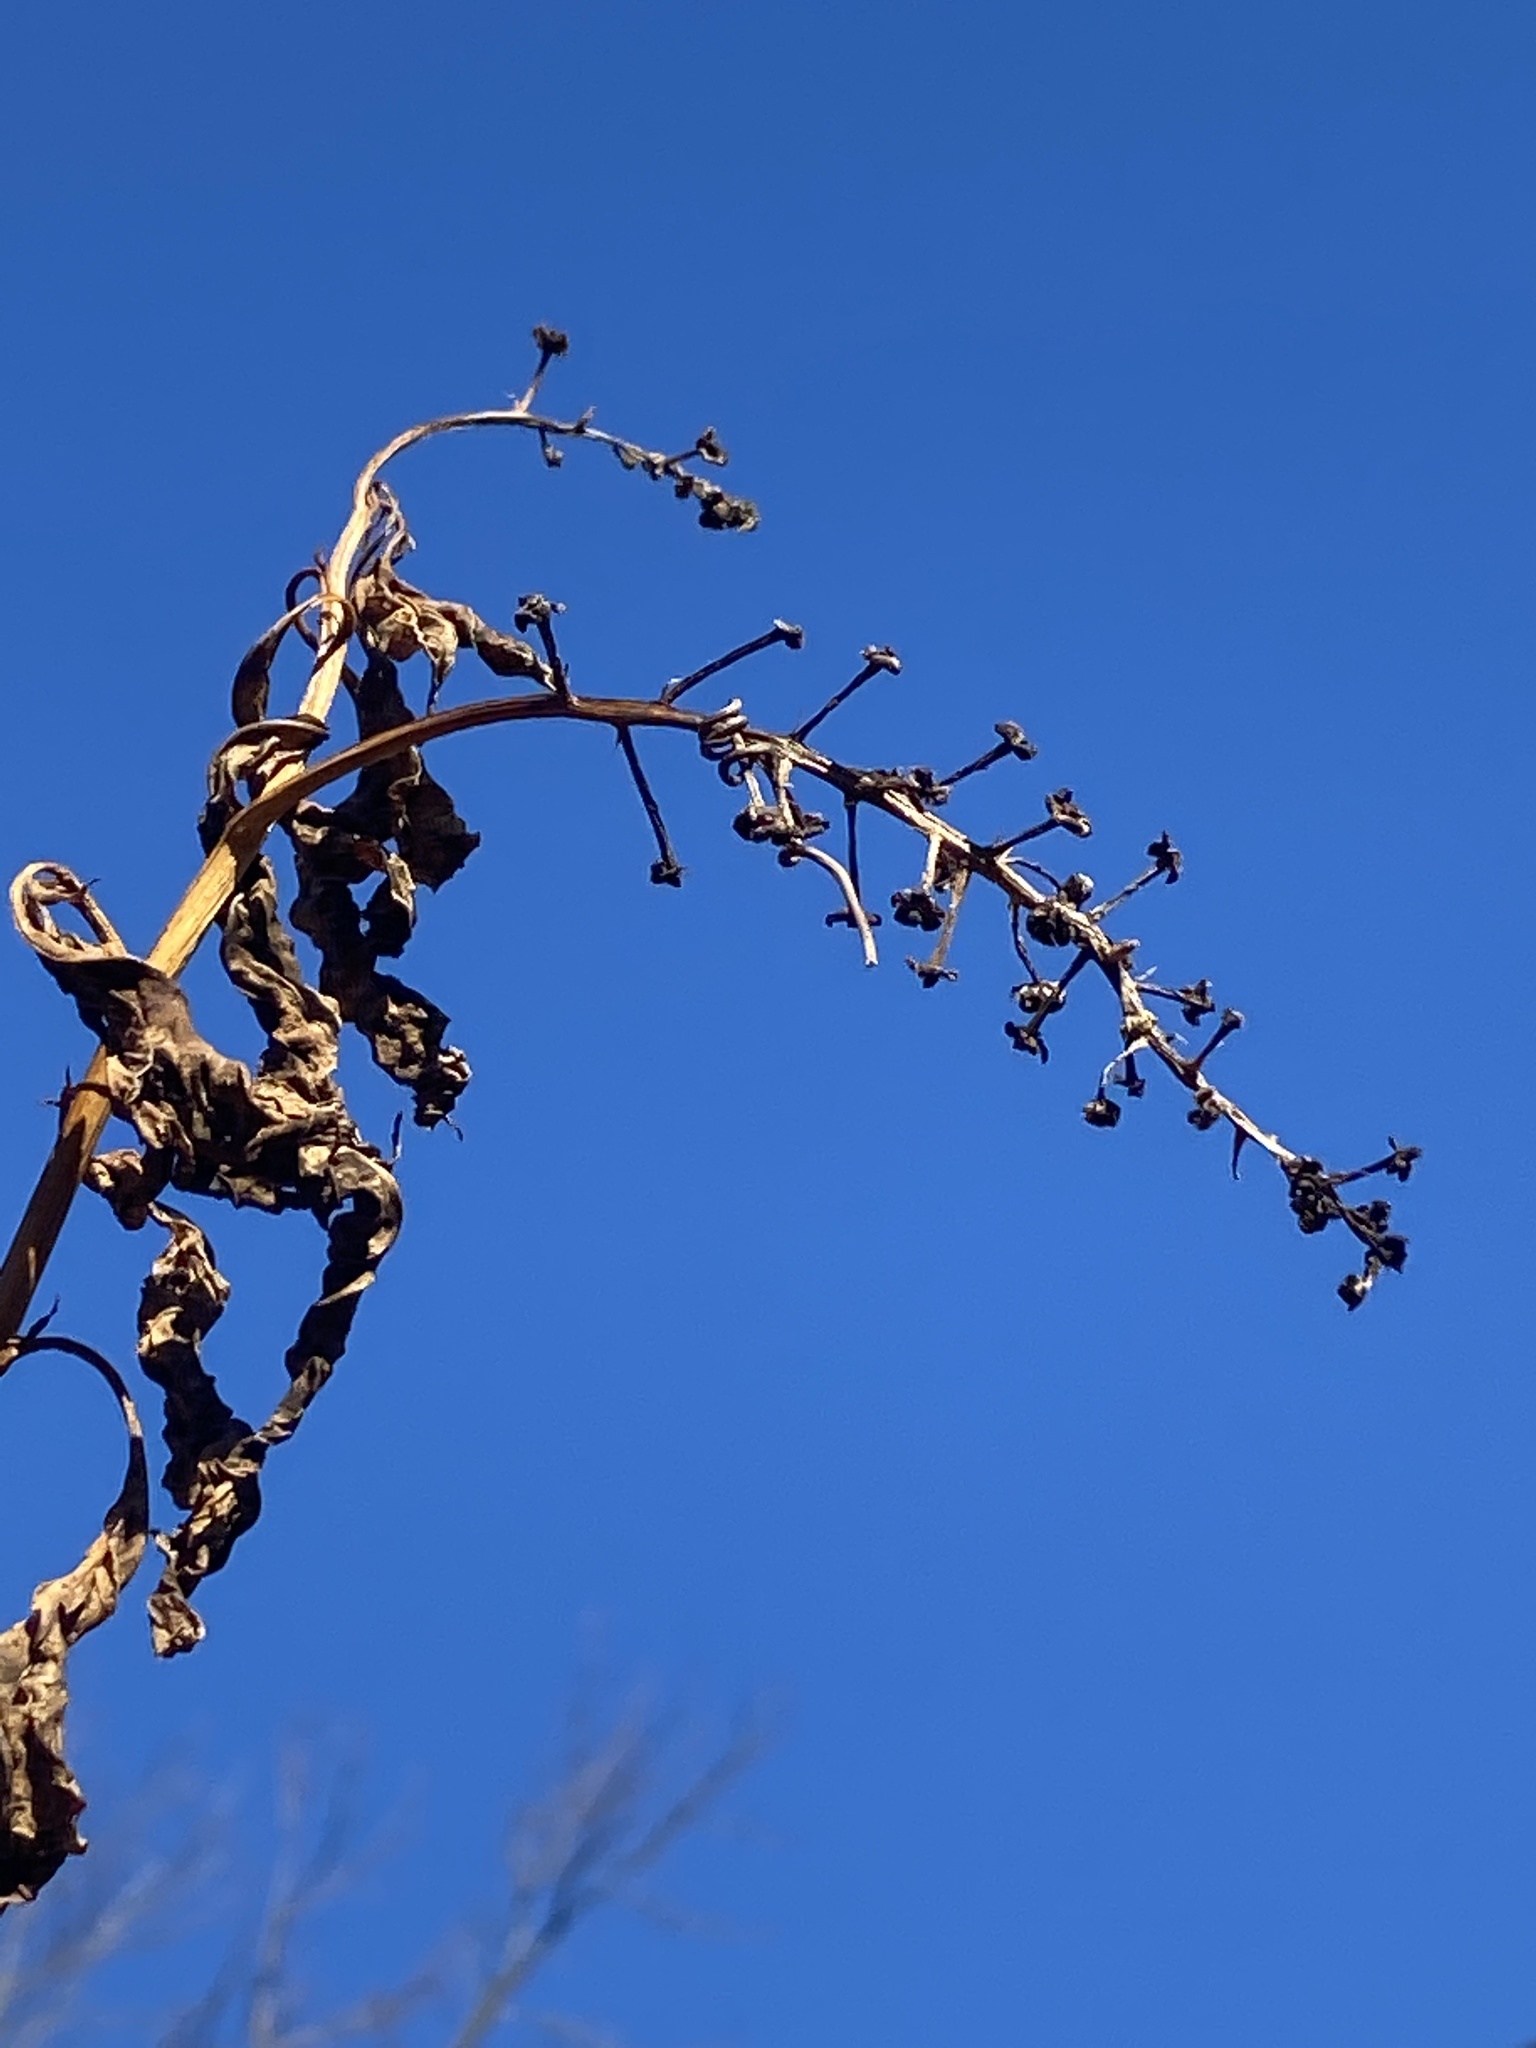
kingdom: Plantae
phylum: Tracheophyta
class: Magnoliopsida
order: Caryophyllales
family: Phytolaccaceae
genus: Phytolacca
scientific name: Phytolacca americana
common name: American pokeweed
